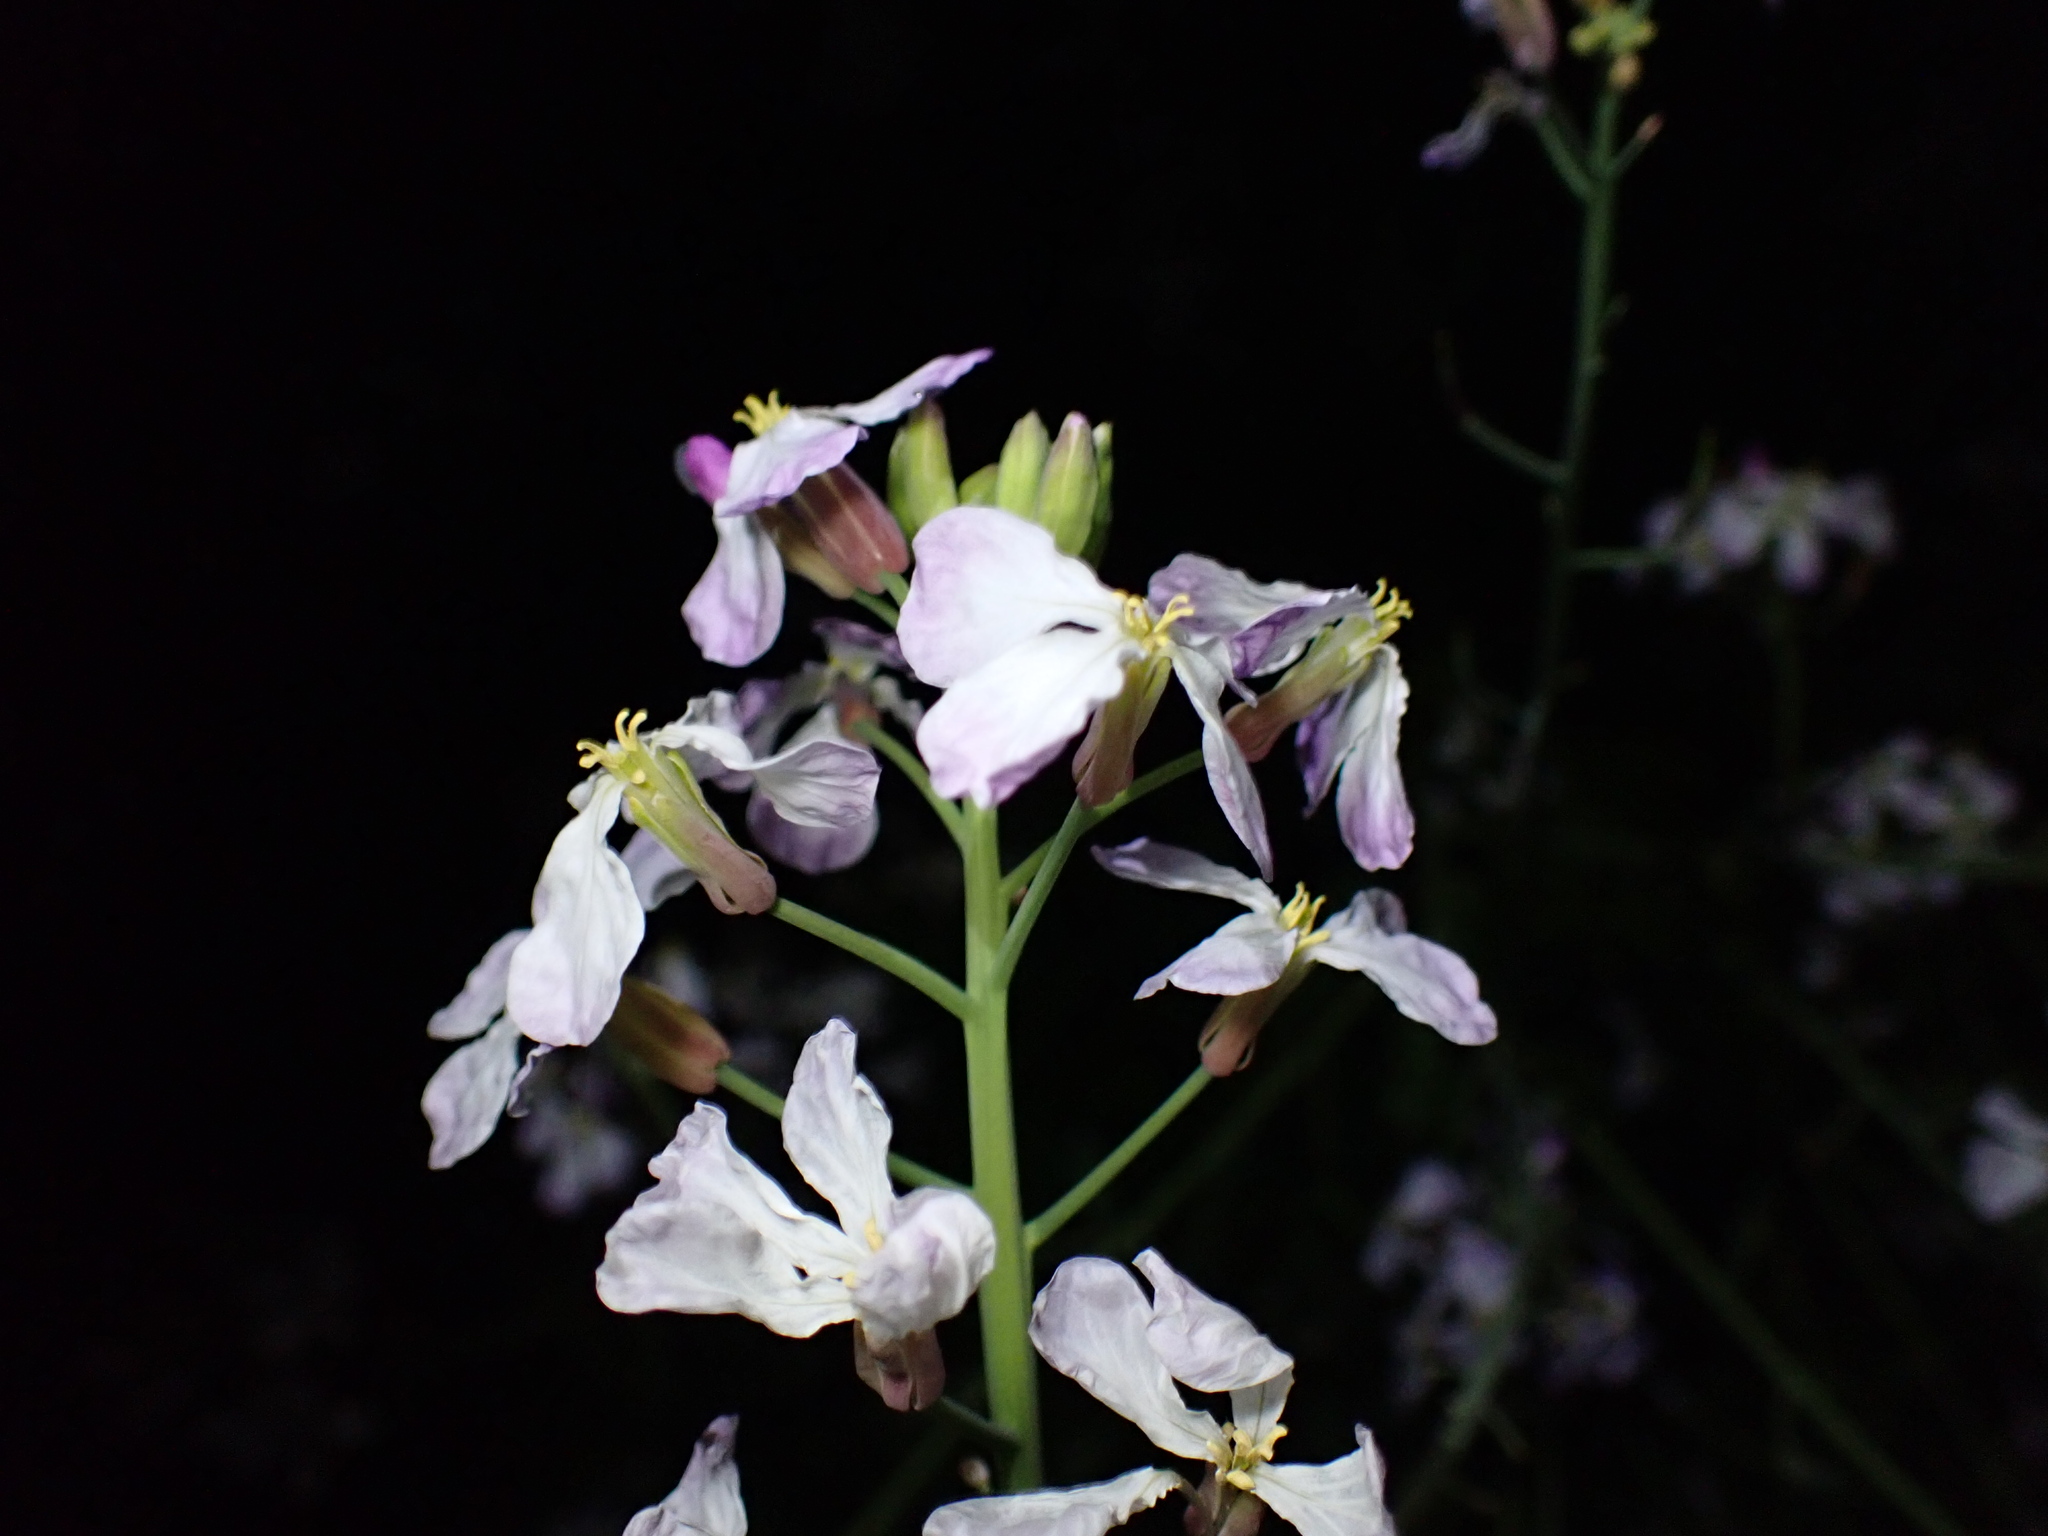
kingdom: Plantae
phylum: Tracheophyta
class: Magnoliopsida
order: Brassicales
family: Brassicaceae
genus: Raphanus
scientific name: Raphanus sativus
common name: Cultivated radish
